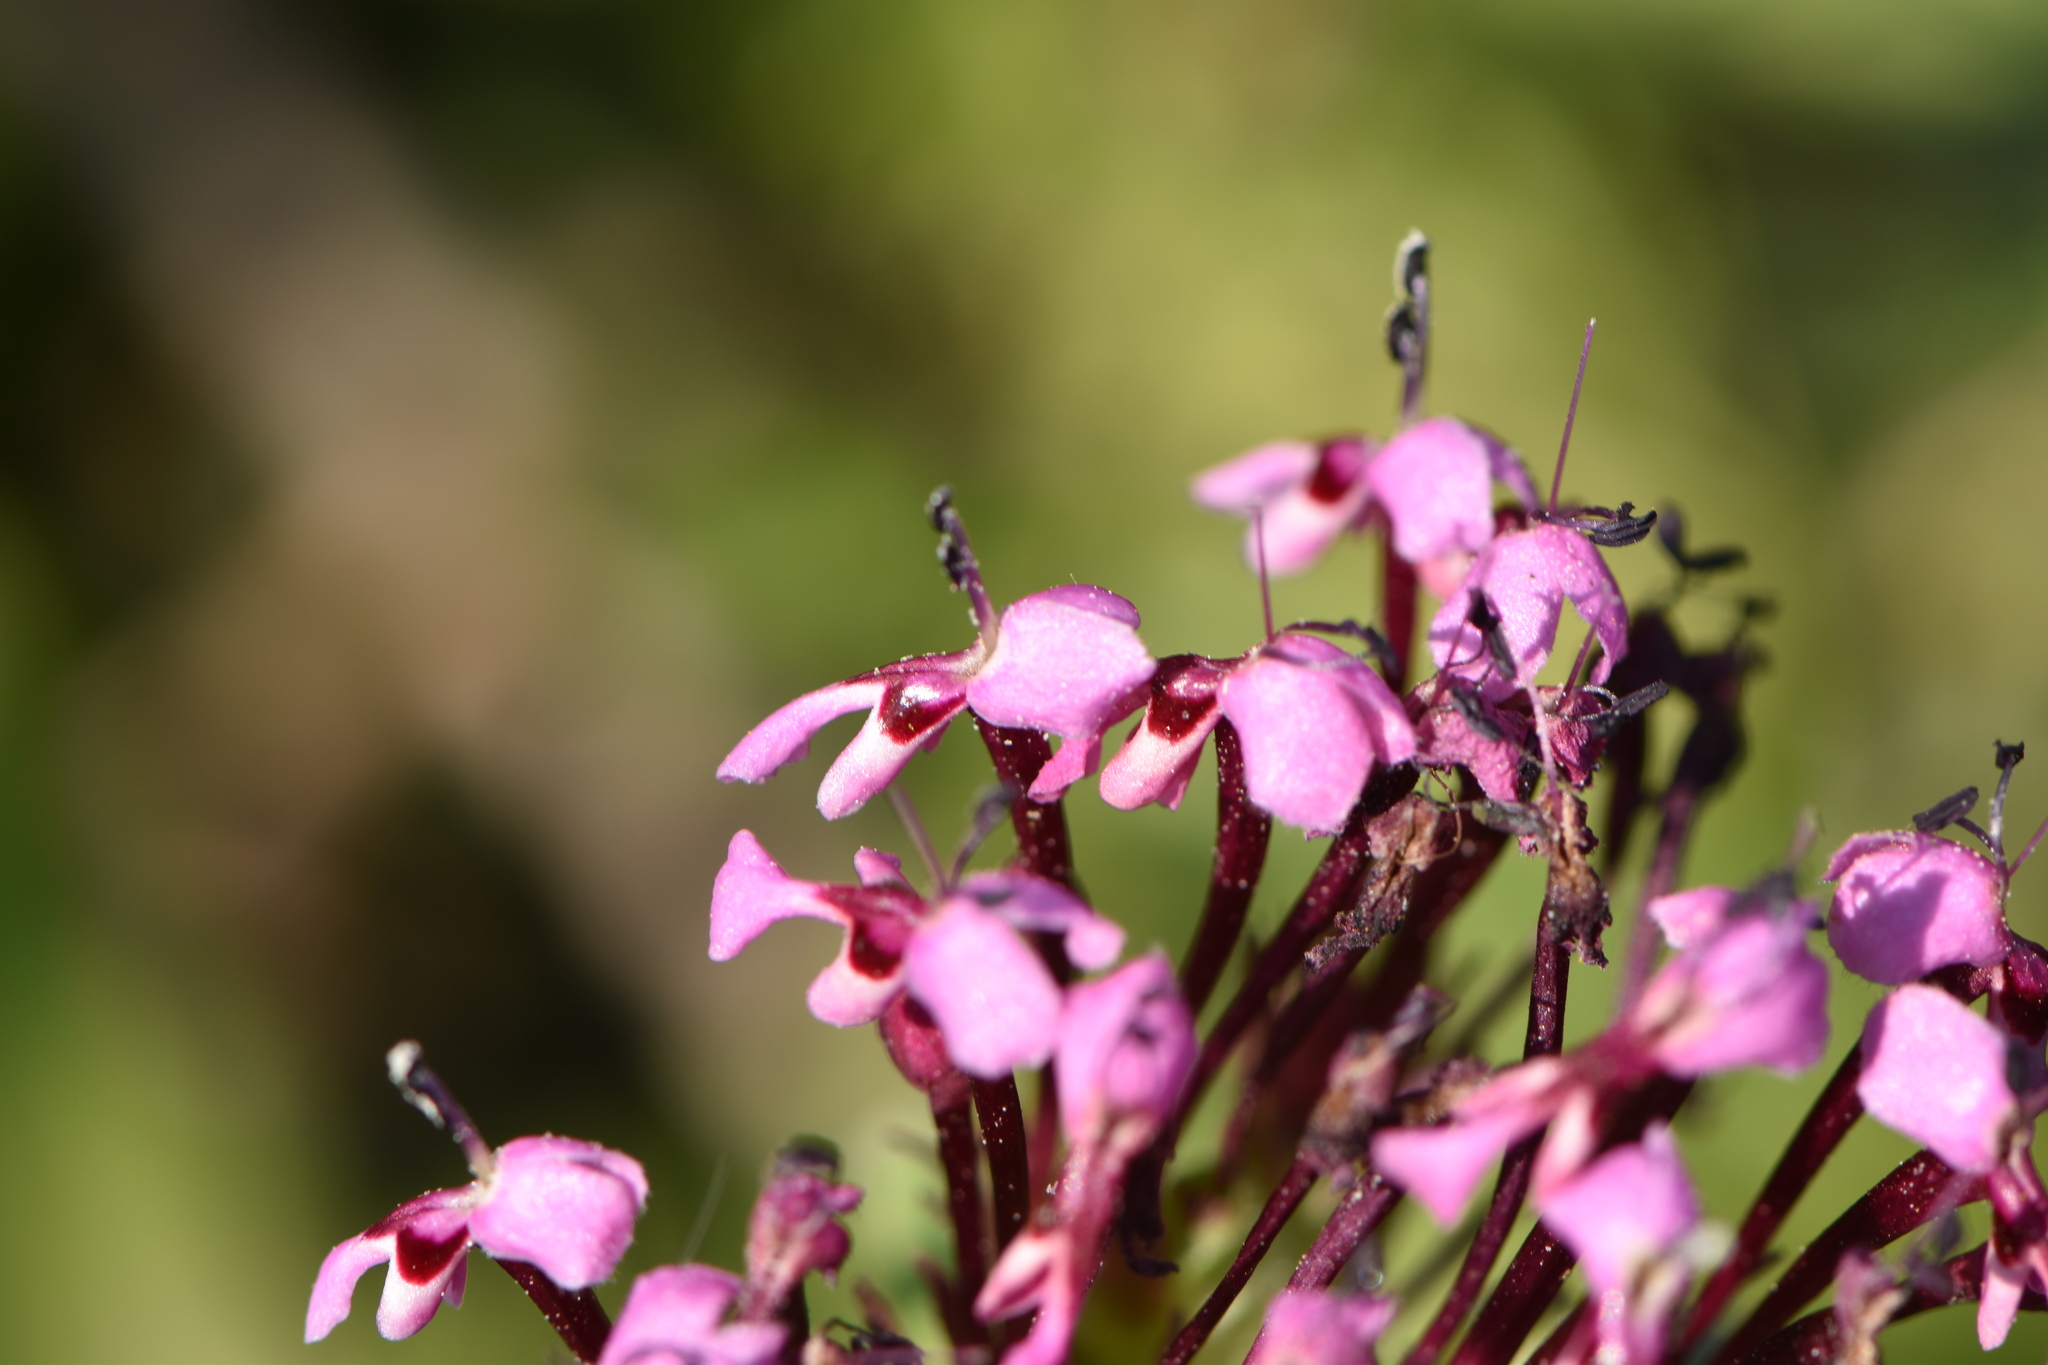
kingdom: Plantae
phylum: Tracheophyta
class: Magnoliopsida
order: Dipsacales
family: Caprifoliaceae
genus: Fedia
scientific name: Fedia cornucopiae
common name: Horn-of-plenty
